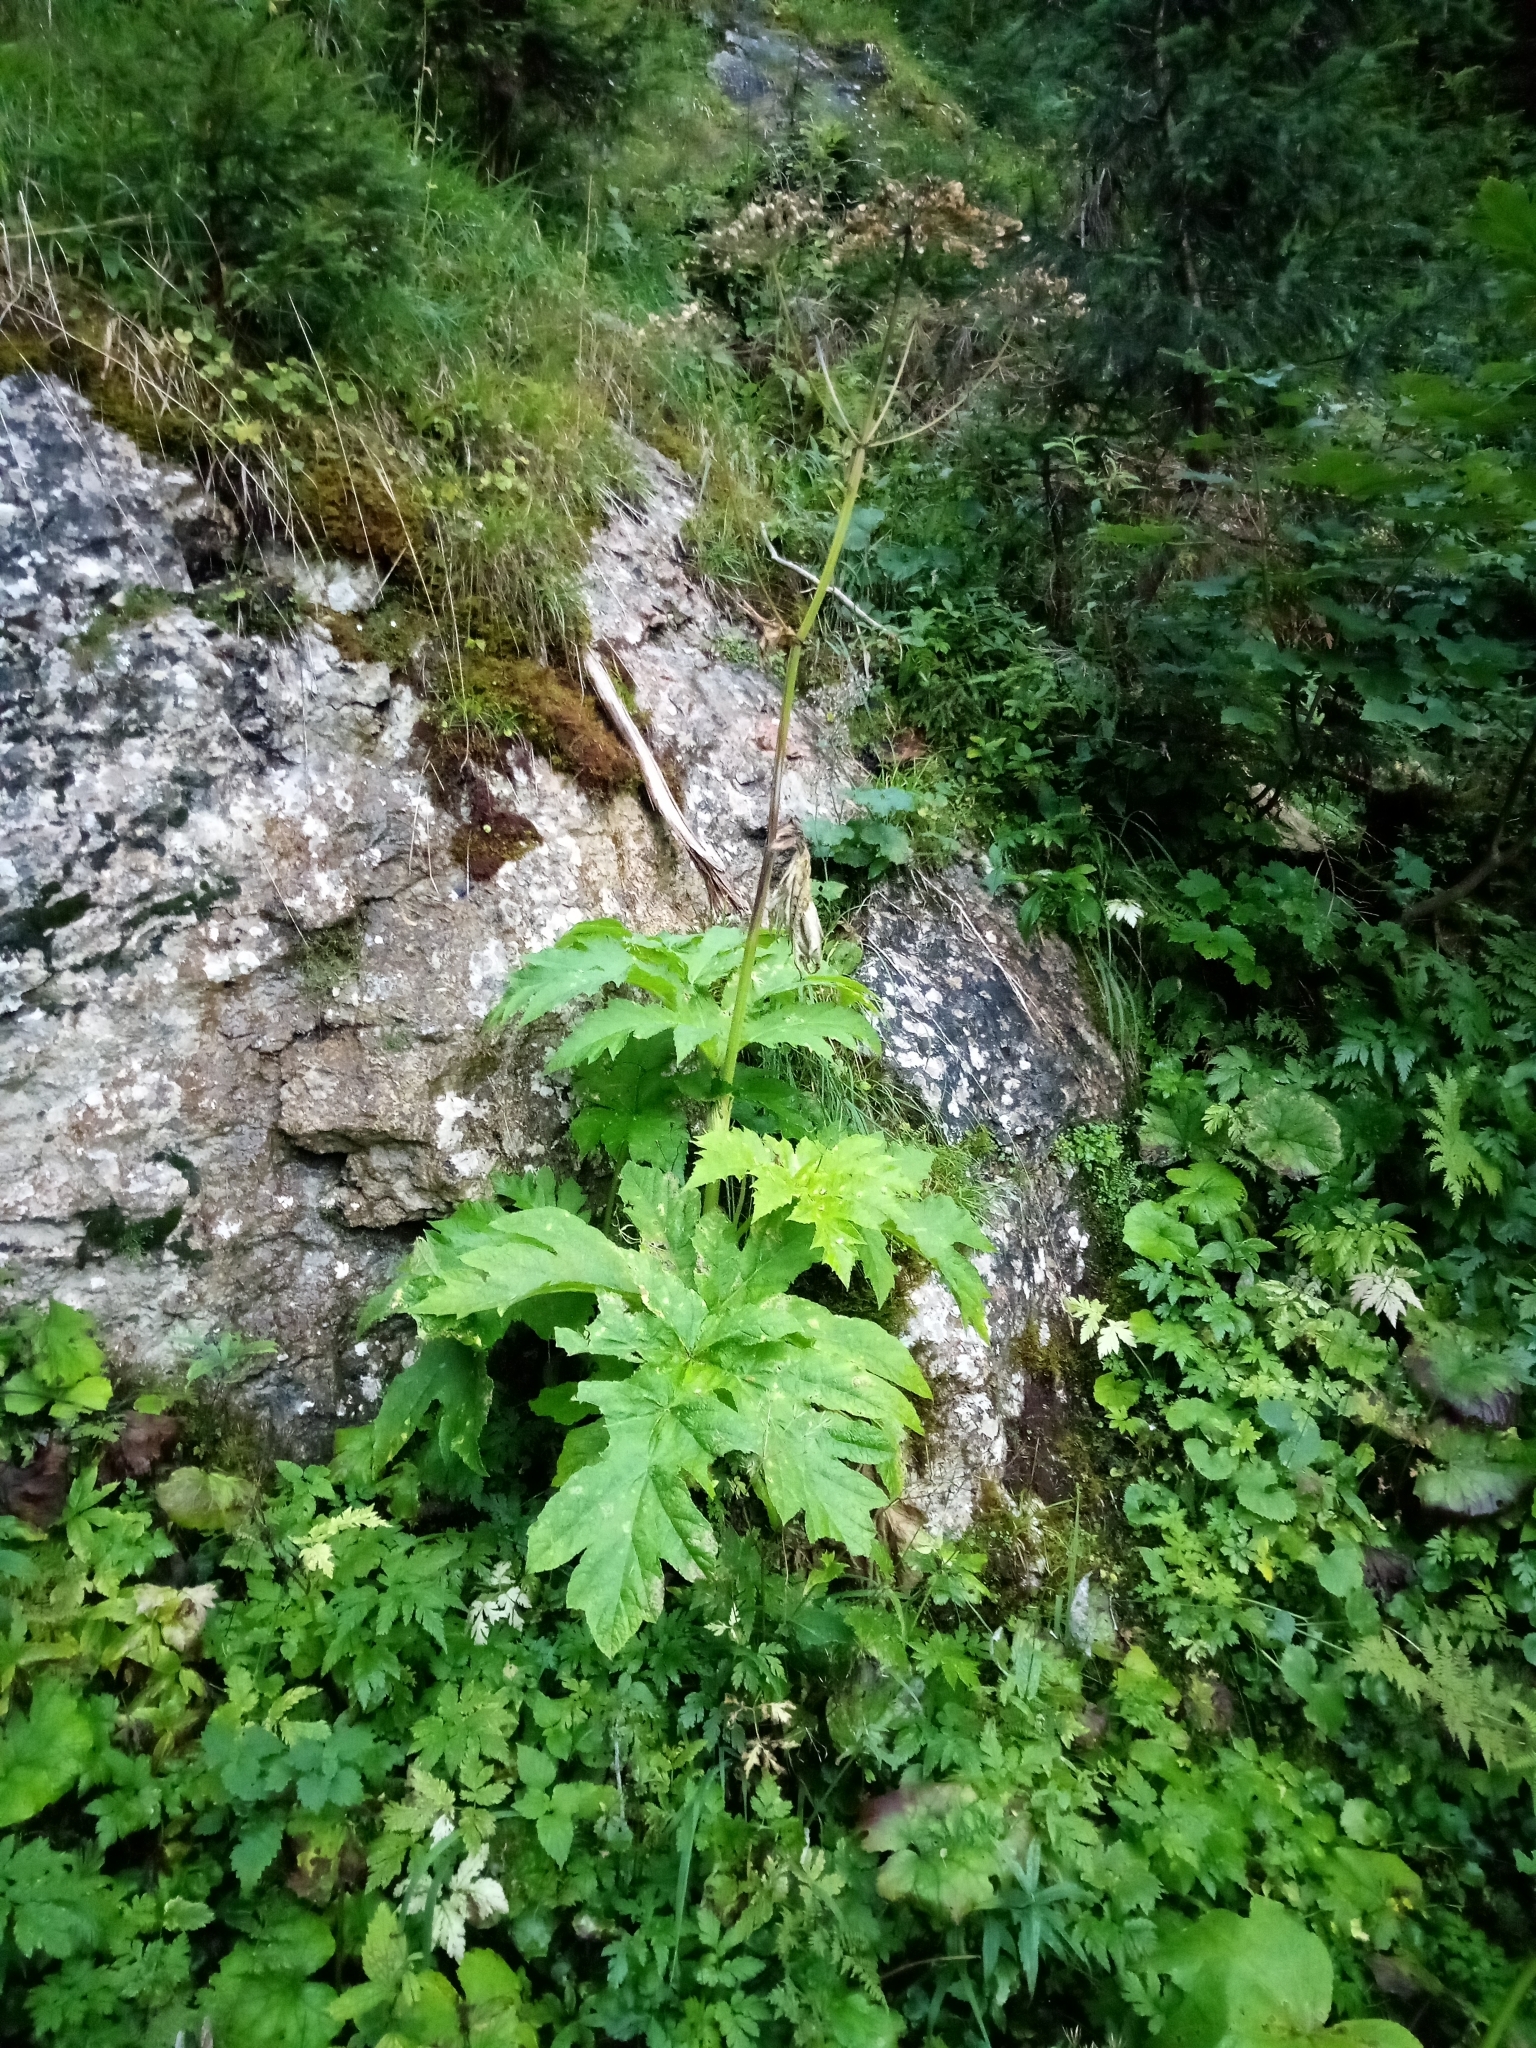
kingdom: Plantae
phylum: Tracheophyta
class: Magnoliopsida
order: Apiales
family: Apiaceae
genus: Heracleum
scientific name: Heracleum sphondylium
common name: Hogweed
